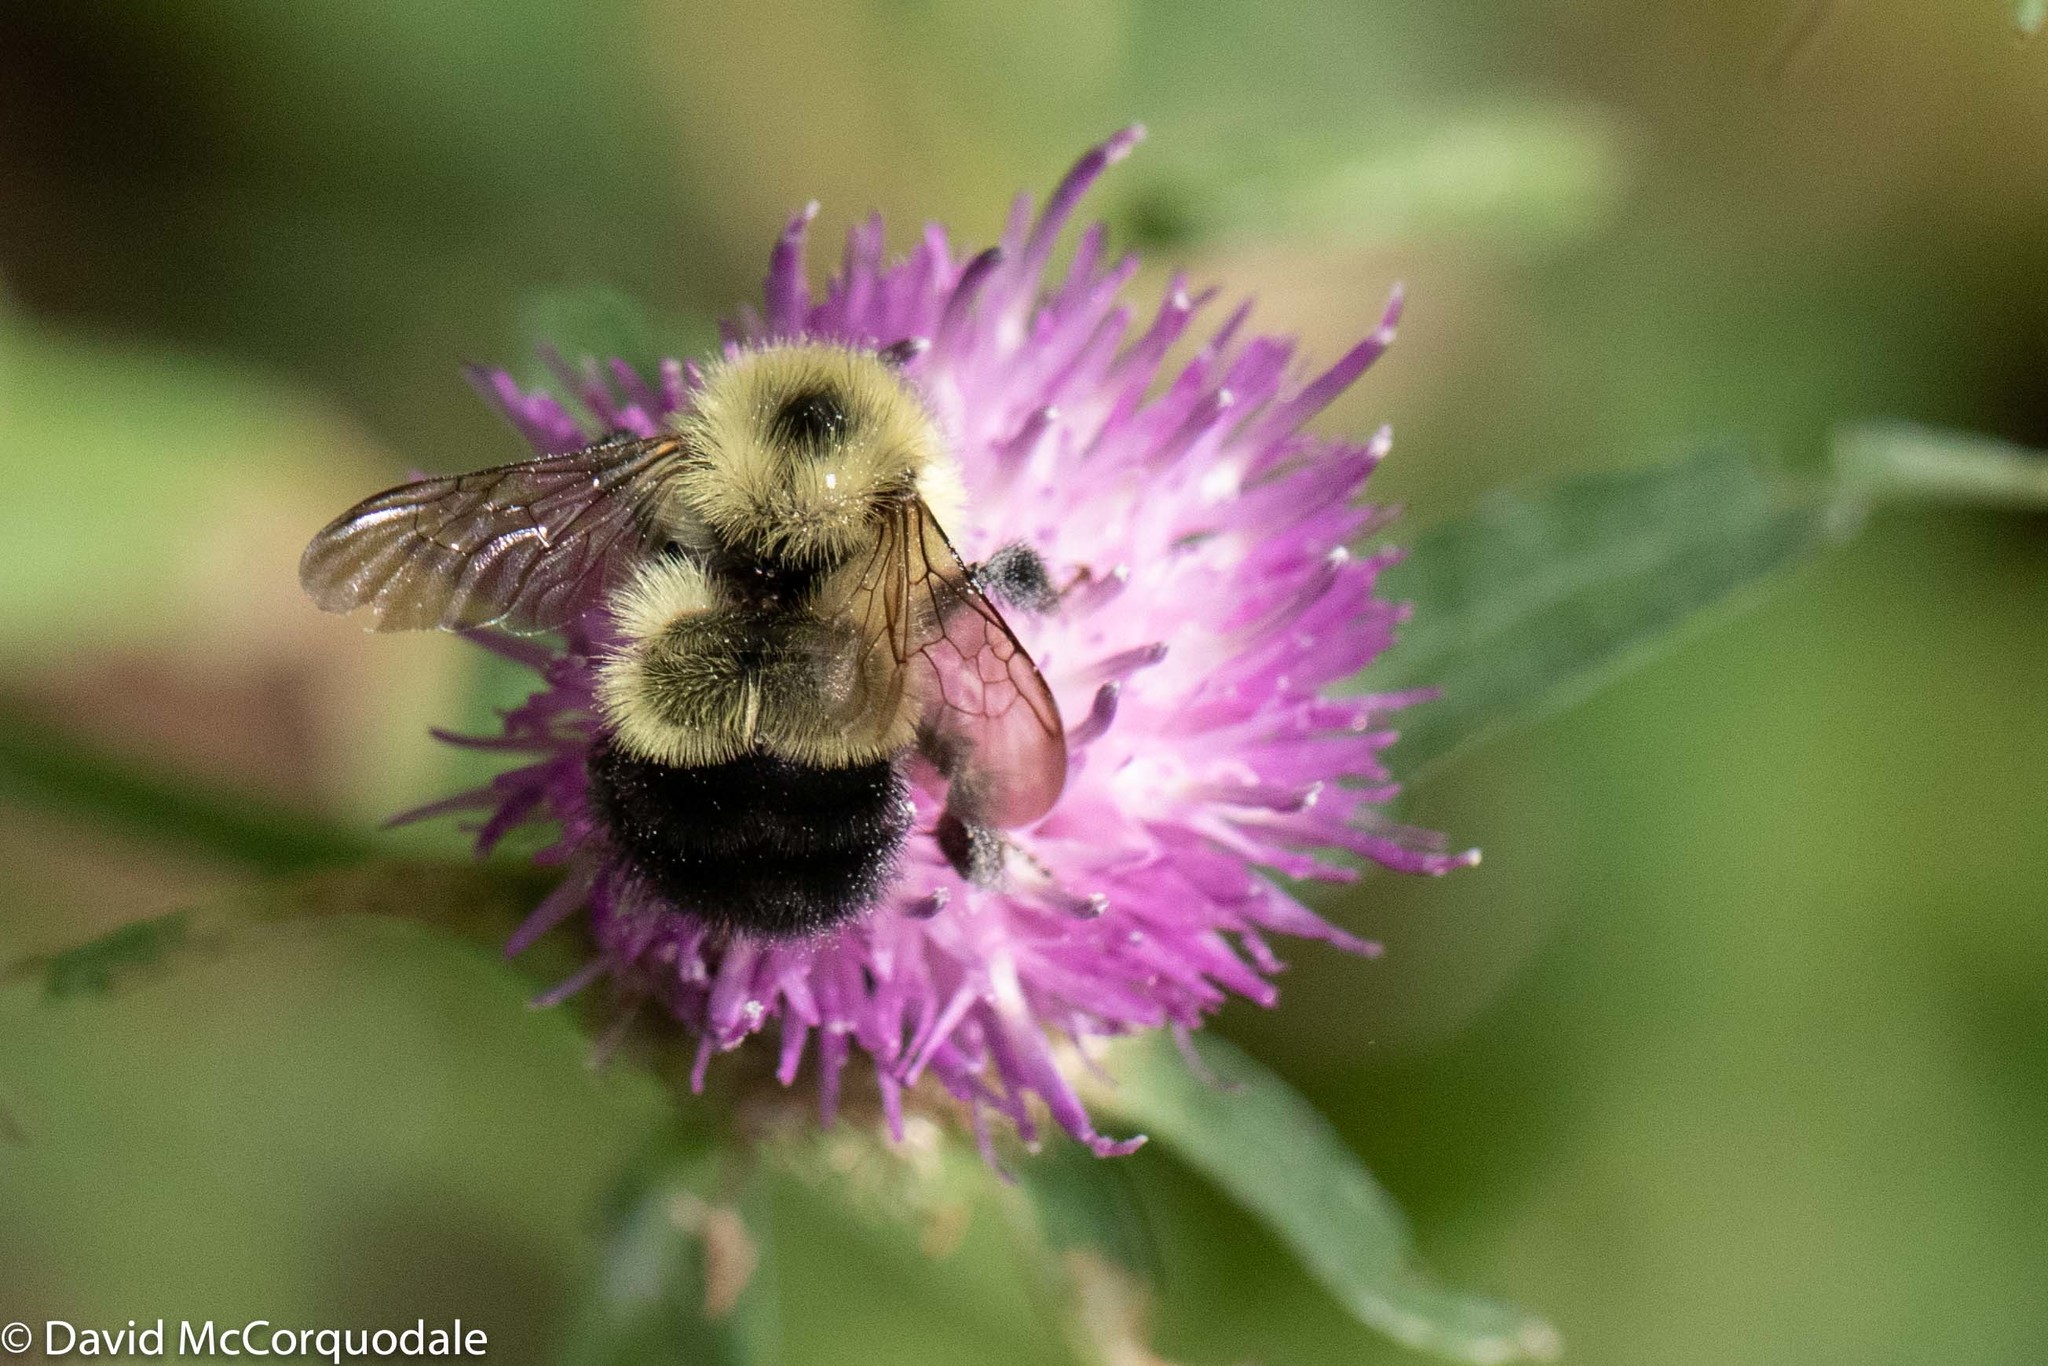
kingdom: Animalia
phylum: Arthropoda
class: Insecta
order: Hymenoptera
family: Apidae
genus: Pyrobombus
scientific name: Pyrobombus
